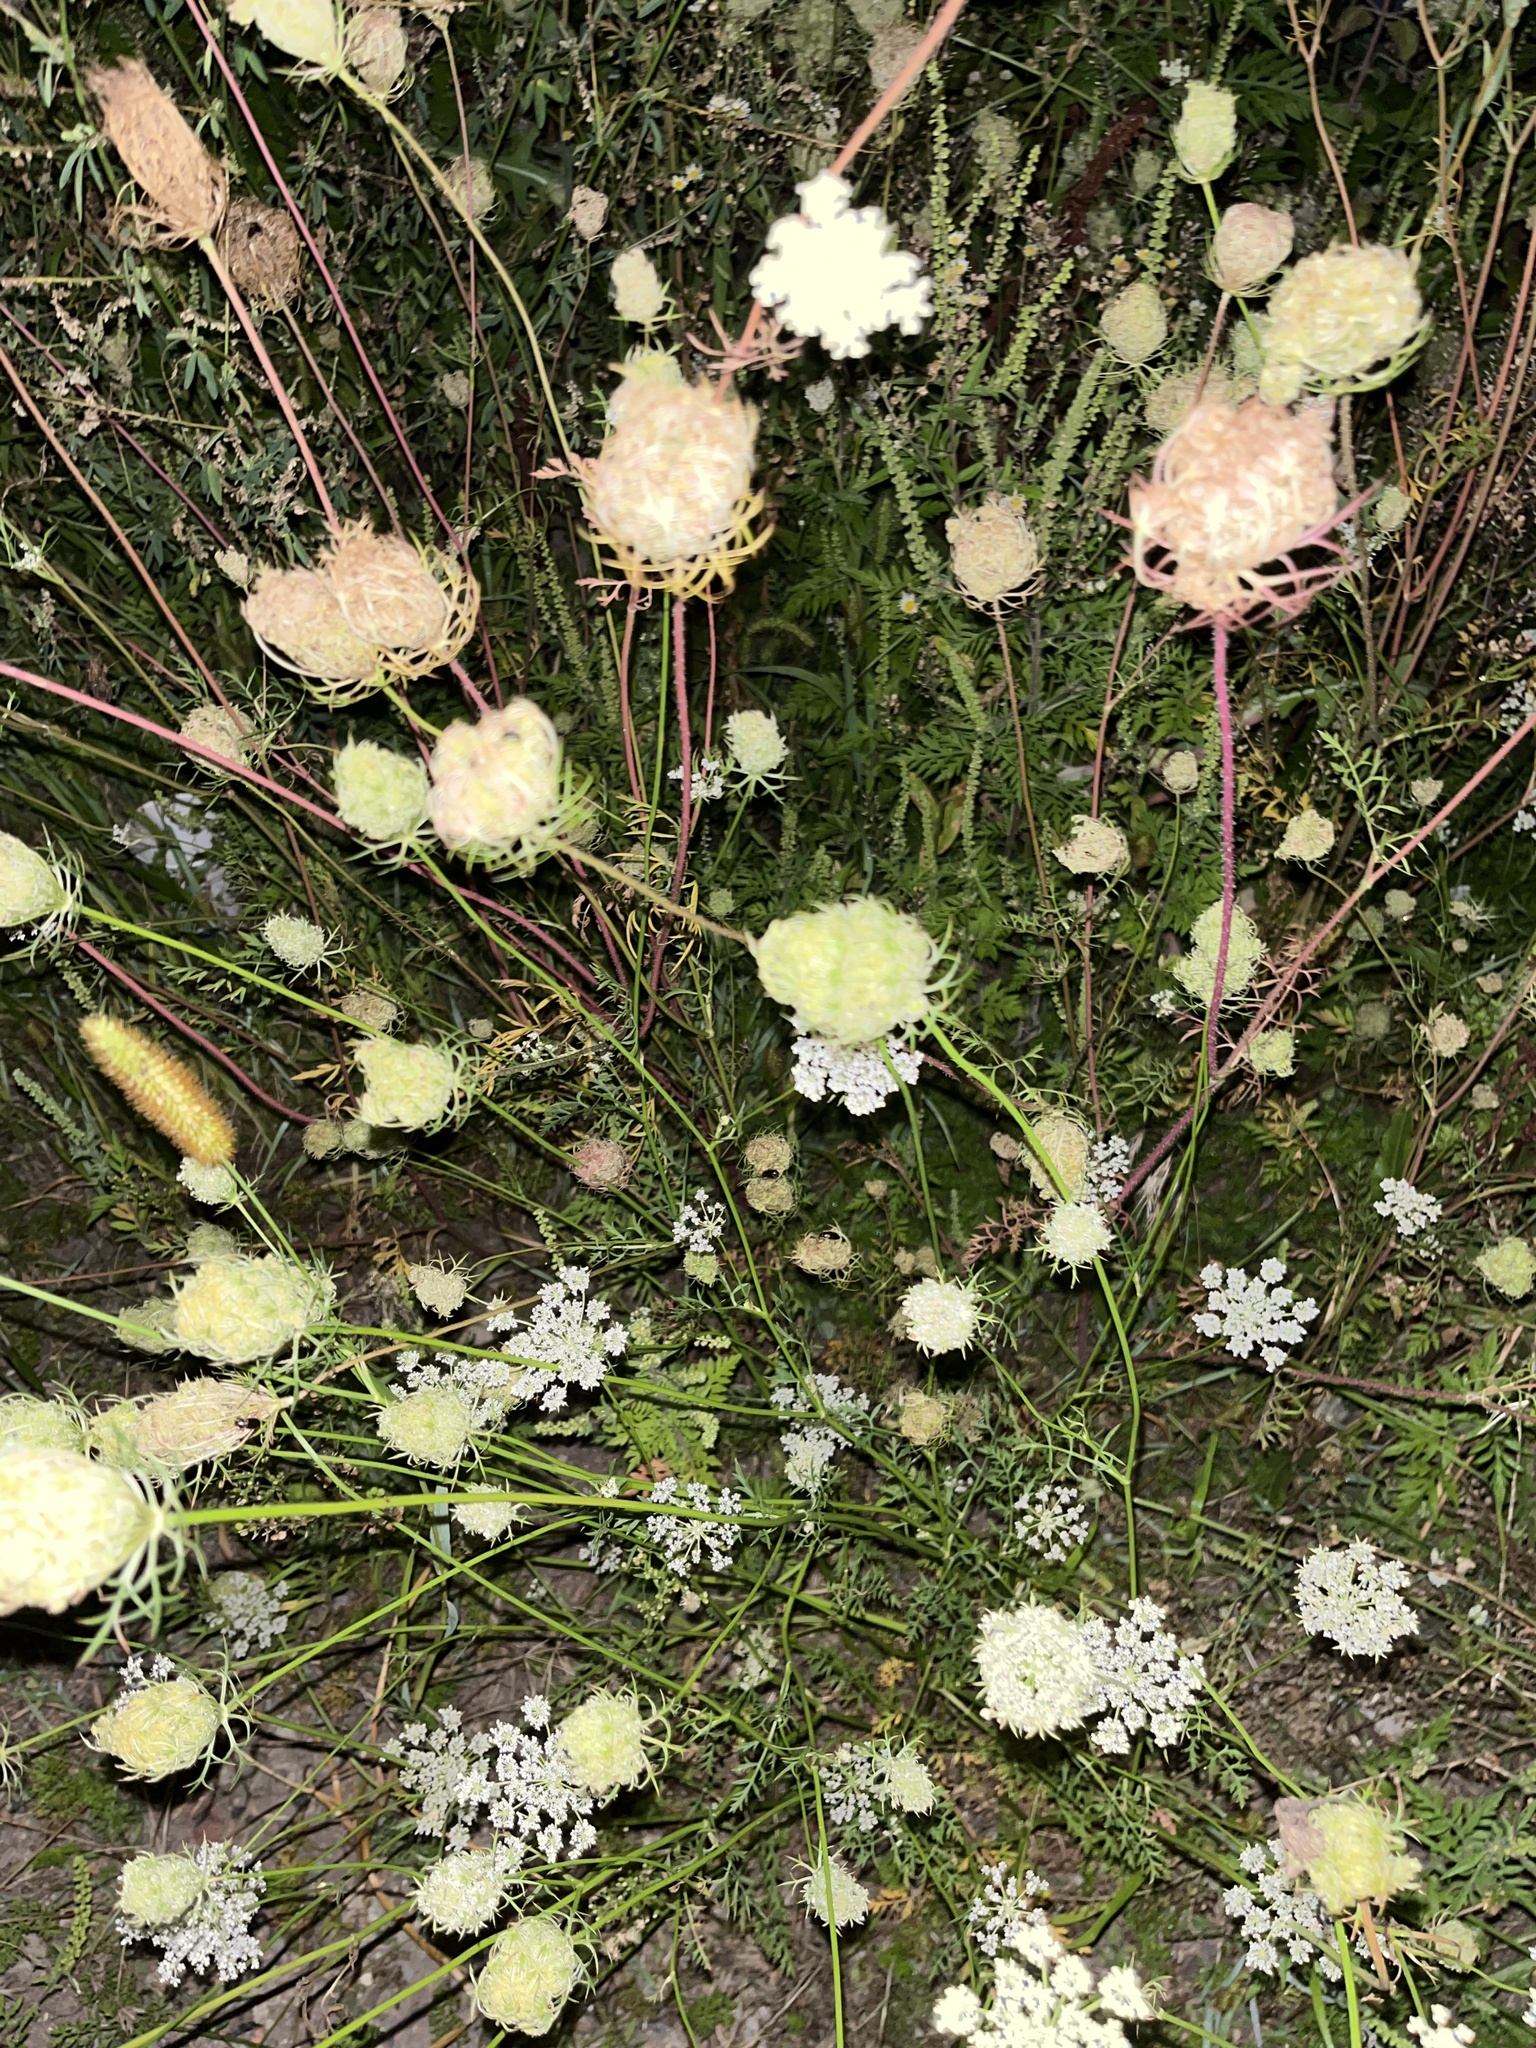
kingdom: Plantae
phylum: Tracheophyta
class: Magnoliopsida
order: Apiales
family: Apiaceae
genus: Daucus
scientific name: Daucus carota
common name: Wild carrot
